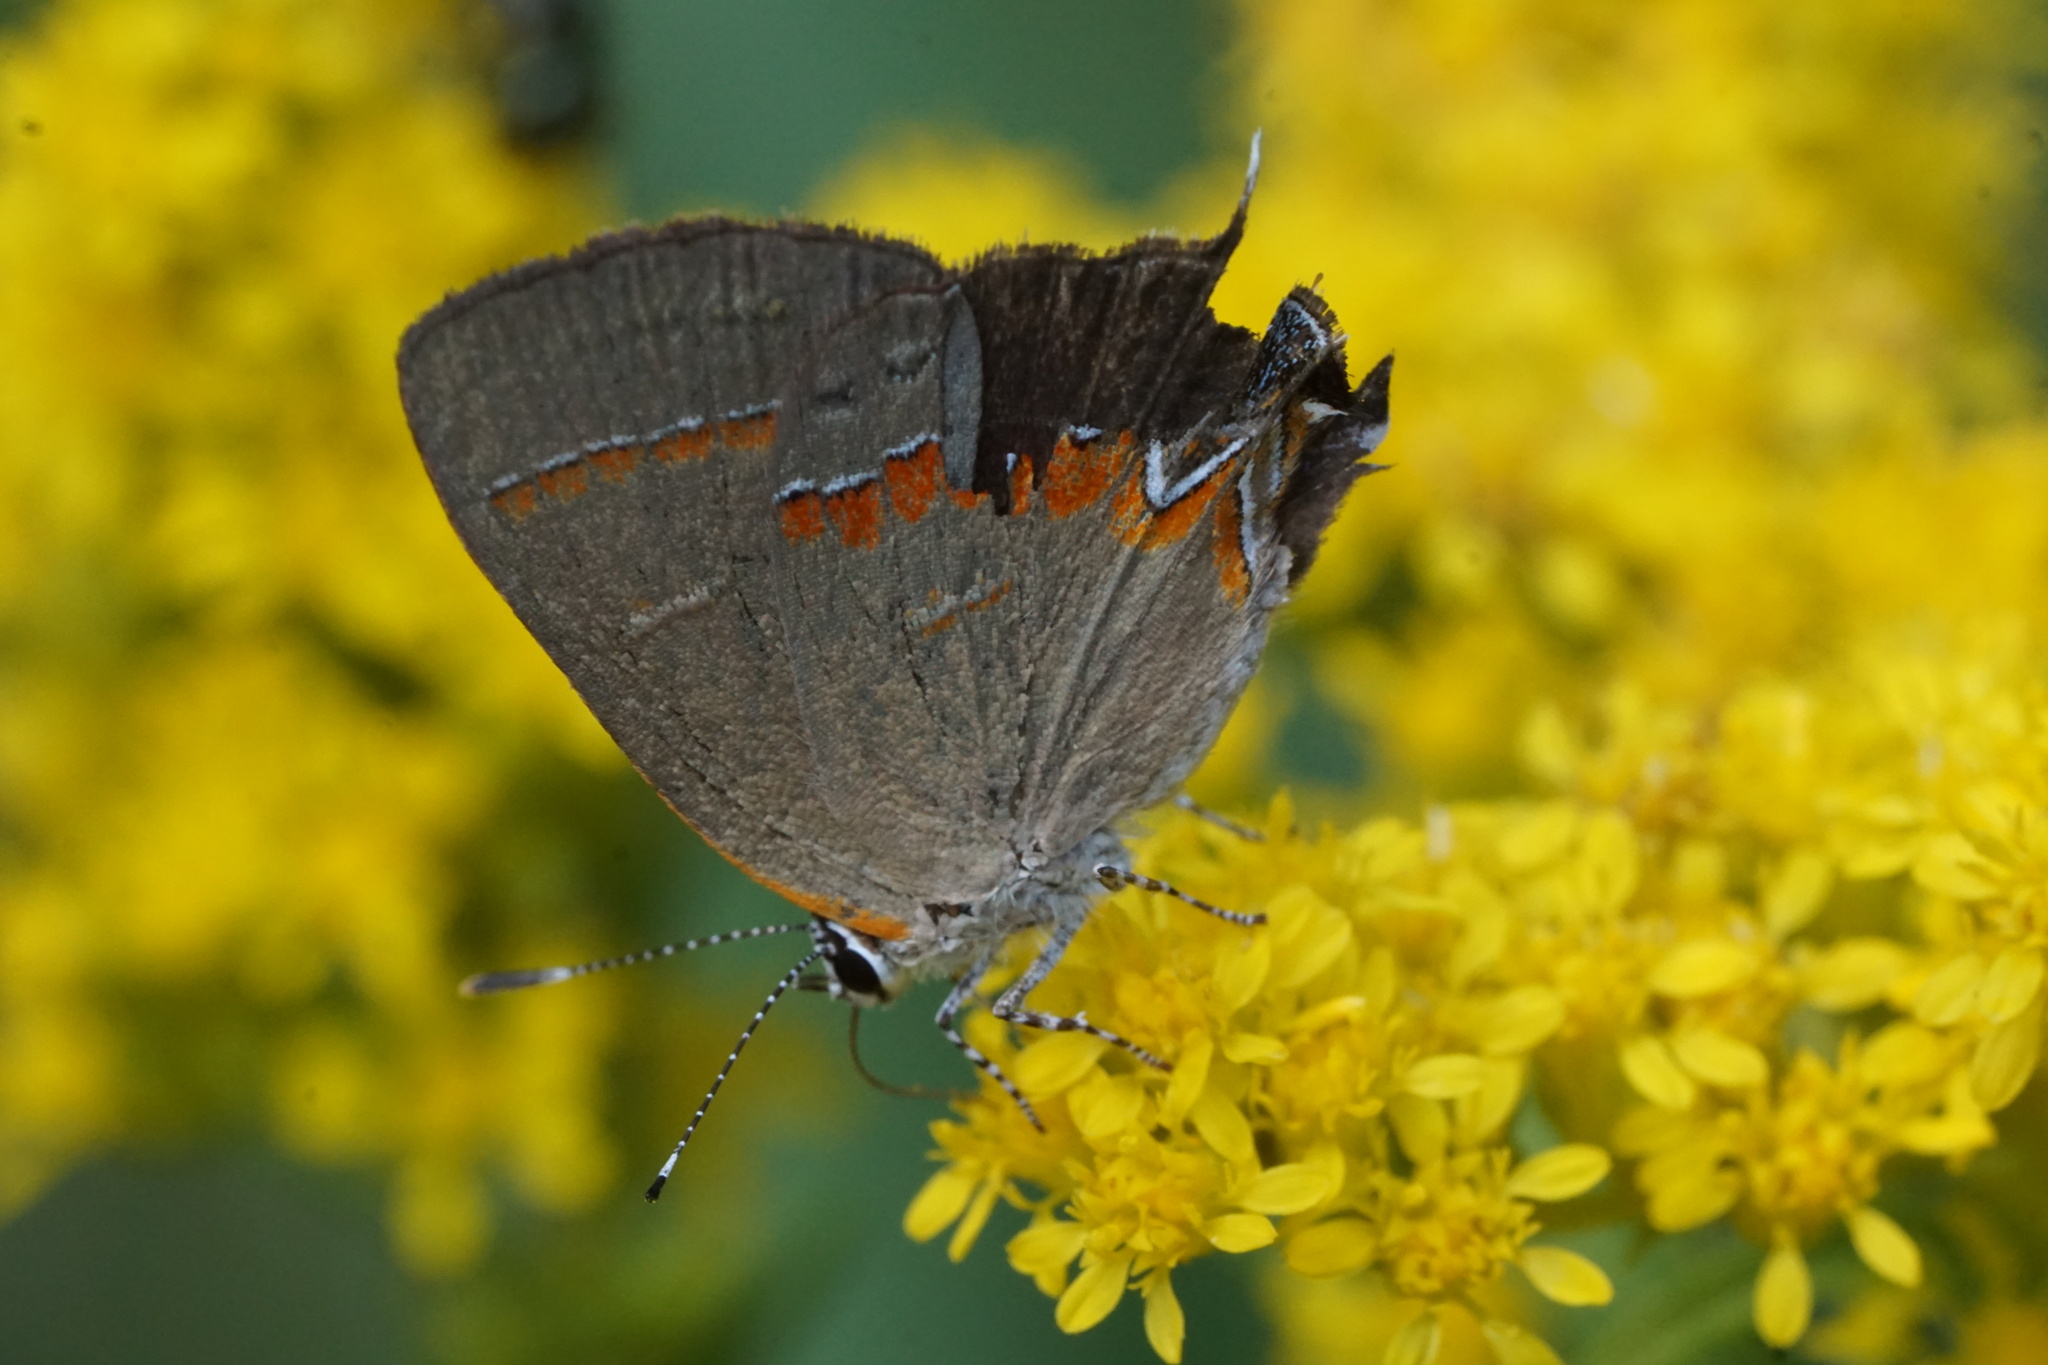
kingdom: Animalia
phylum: Arthropoda
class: Insecta
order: Lepidoptera
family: Lycaenidae
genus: Calycopis
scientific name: Calycopis cecrops
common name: Red-banded hairstreak
